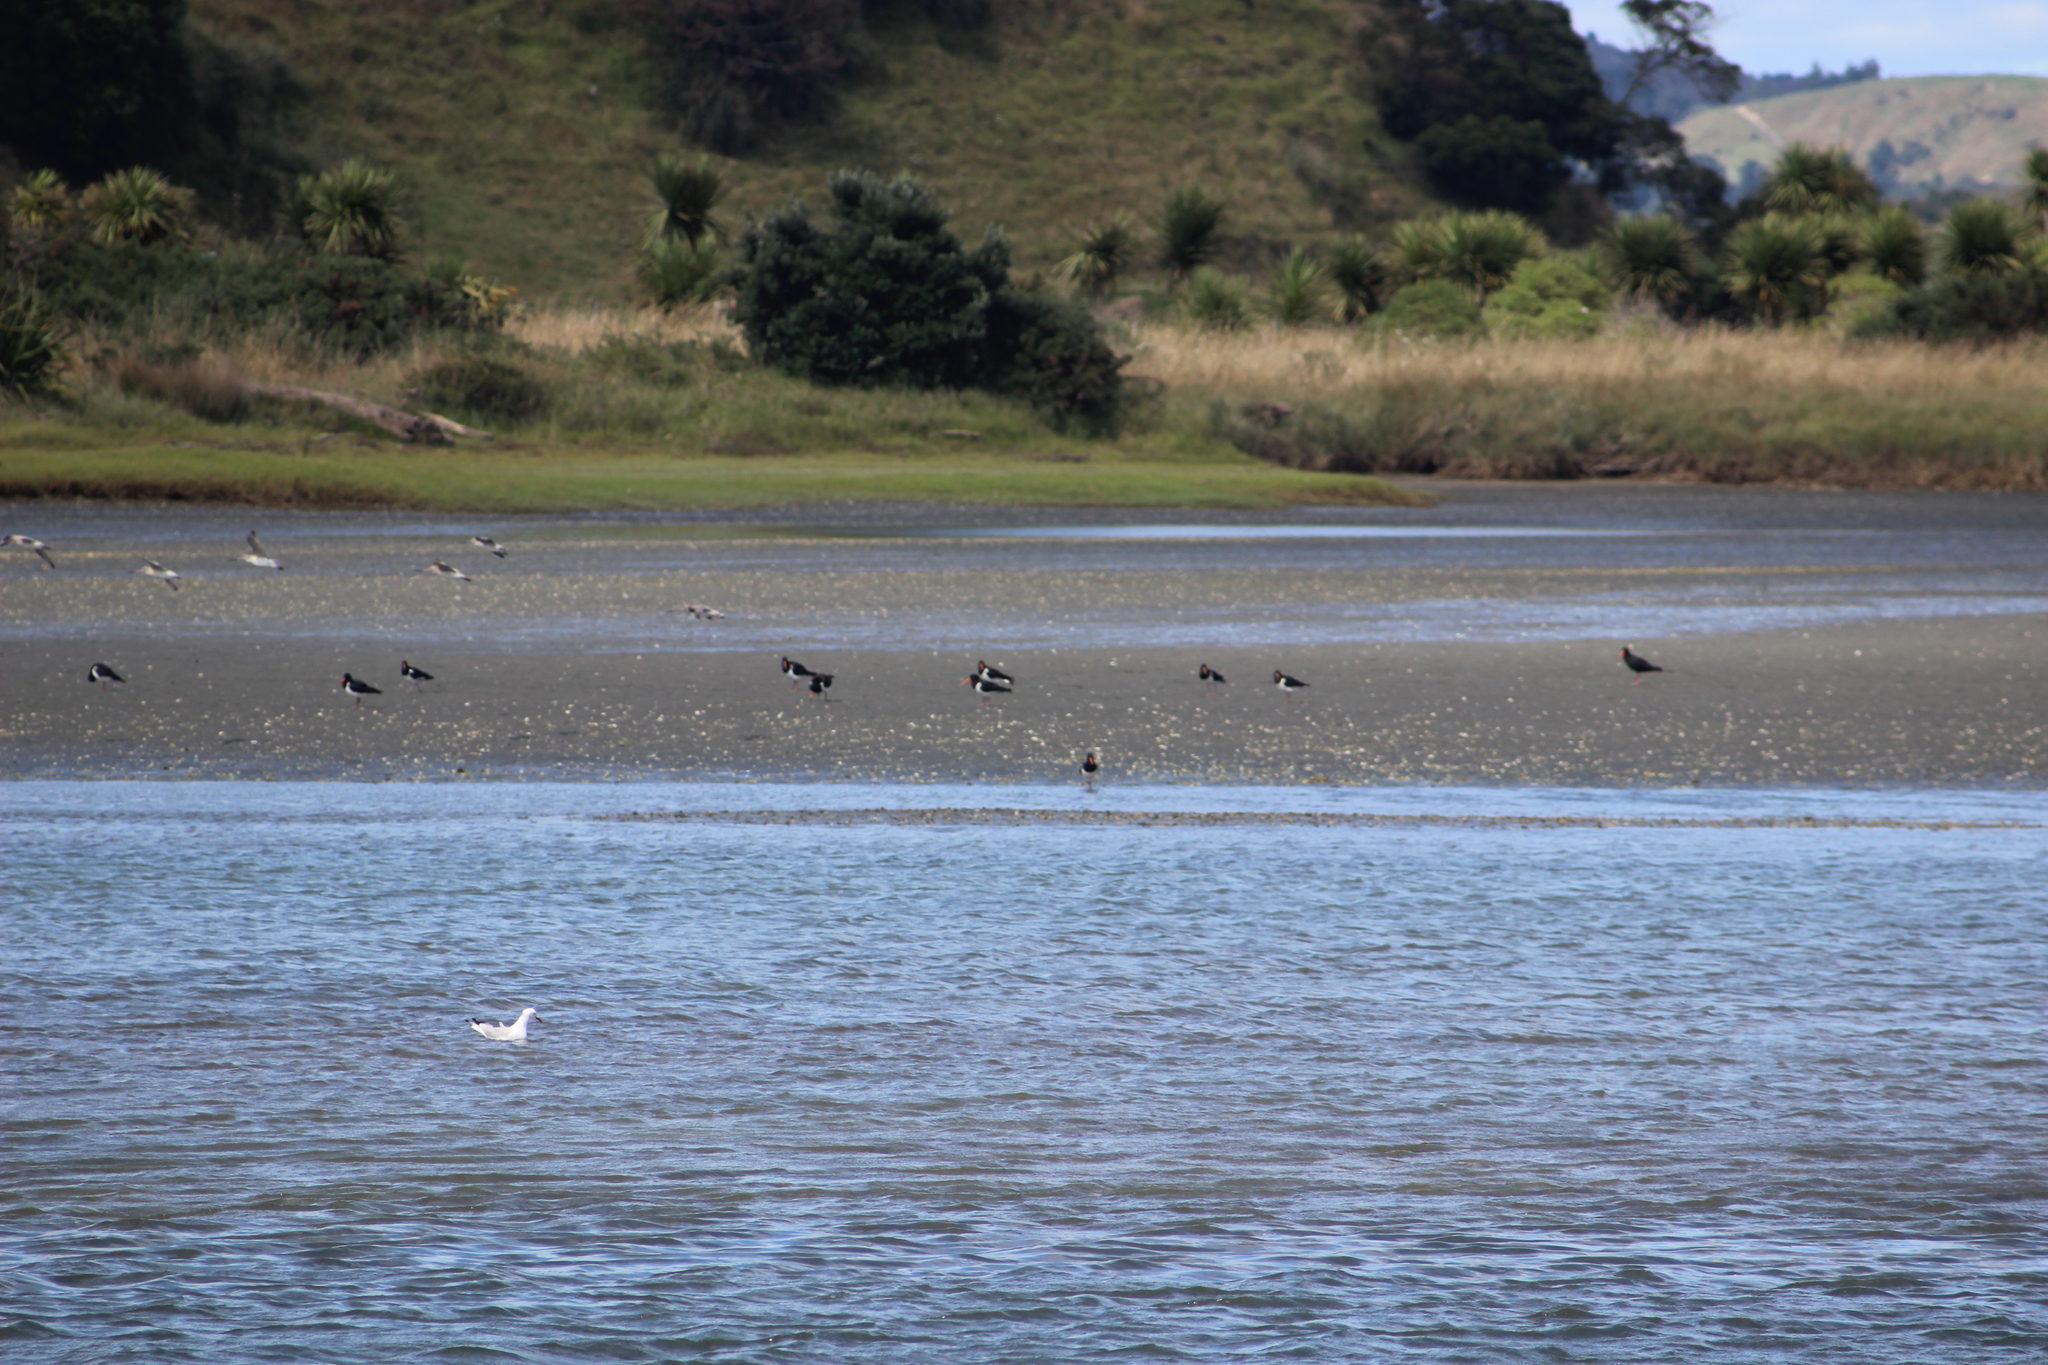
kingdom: Animalia
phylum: Chordata
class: Aves
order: Charadriiformes
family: Haematopodidae
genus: Haematopus
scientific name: Haematopus finschi
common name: South island oystercatcher
